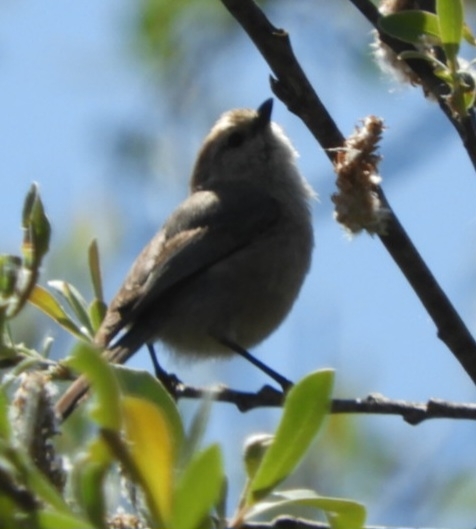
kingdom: Animalia
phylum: Chordata
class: Aves
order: Passeriformes
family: Aegithalidae
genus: Psaltriparus
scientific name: Psaltriparus minimus
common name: American bushtit
